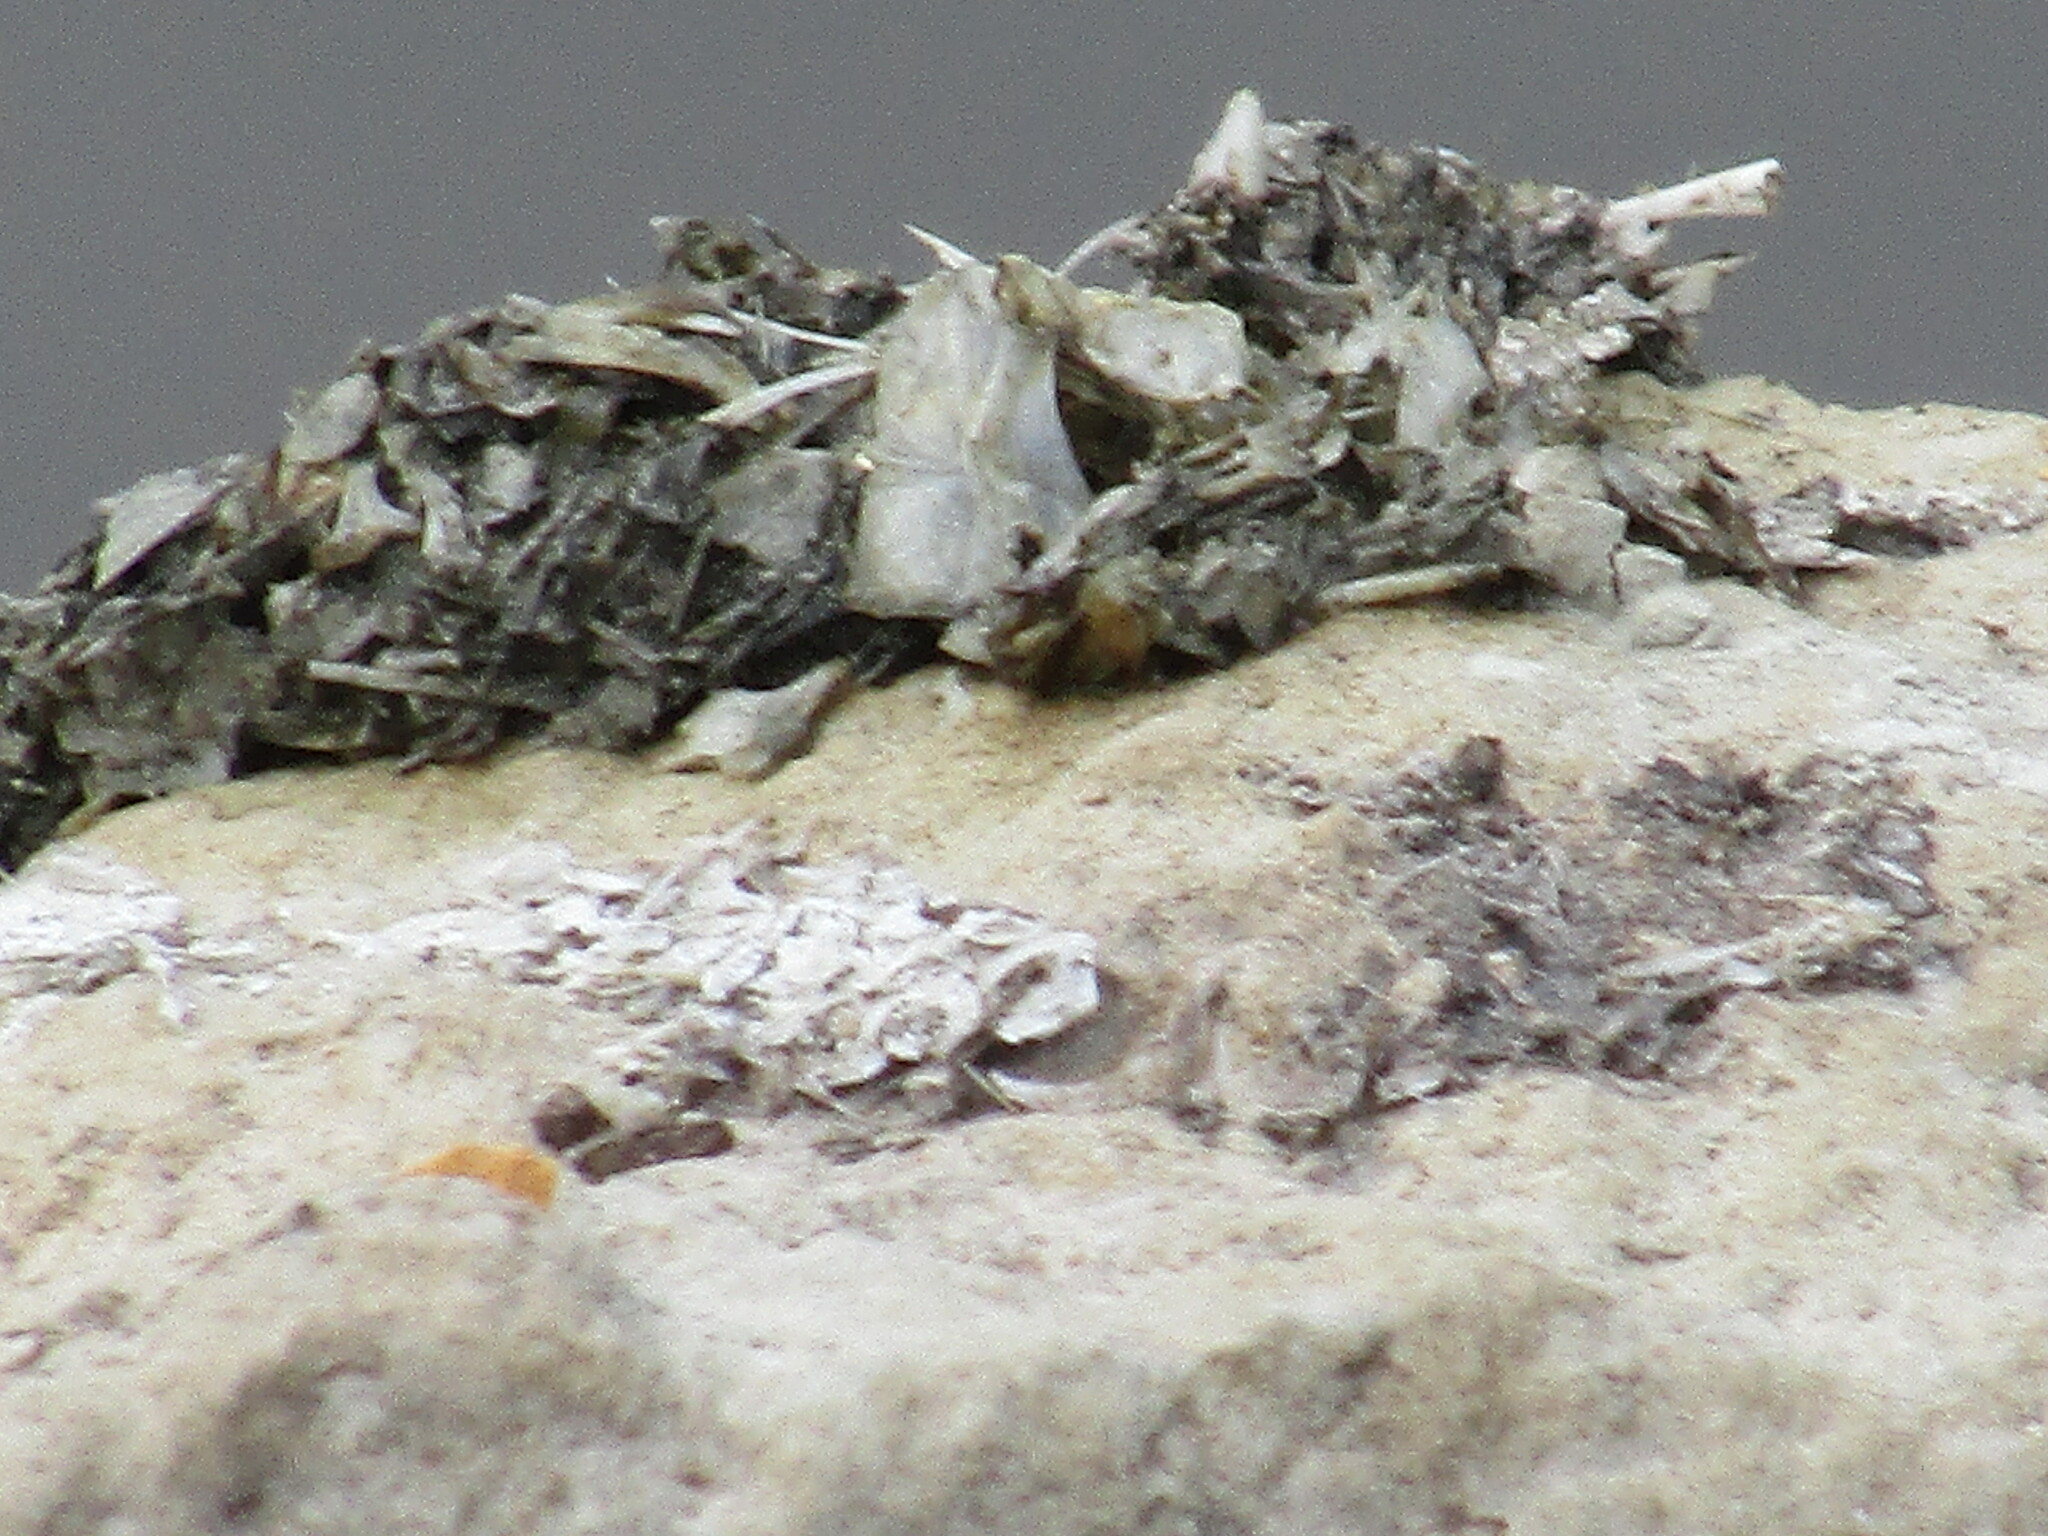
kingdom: Animalia
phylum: Chordata
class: Mammalia
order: Carnivora
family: Mustelidae
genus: Lutra
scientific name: Lutra lutra
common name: European otter
